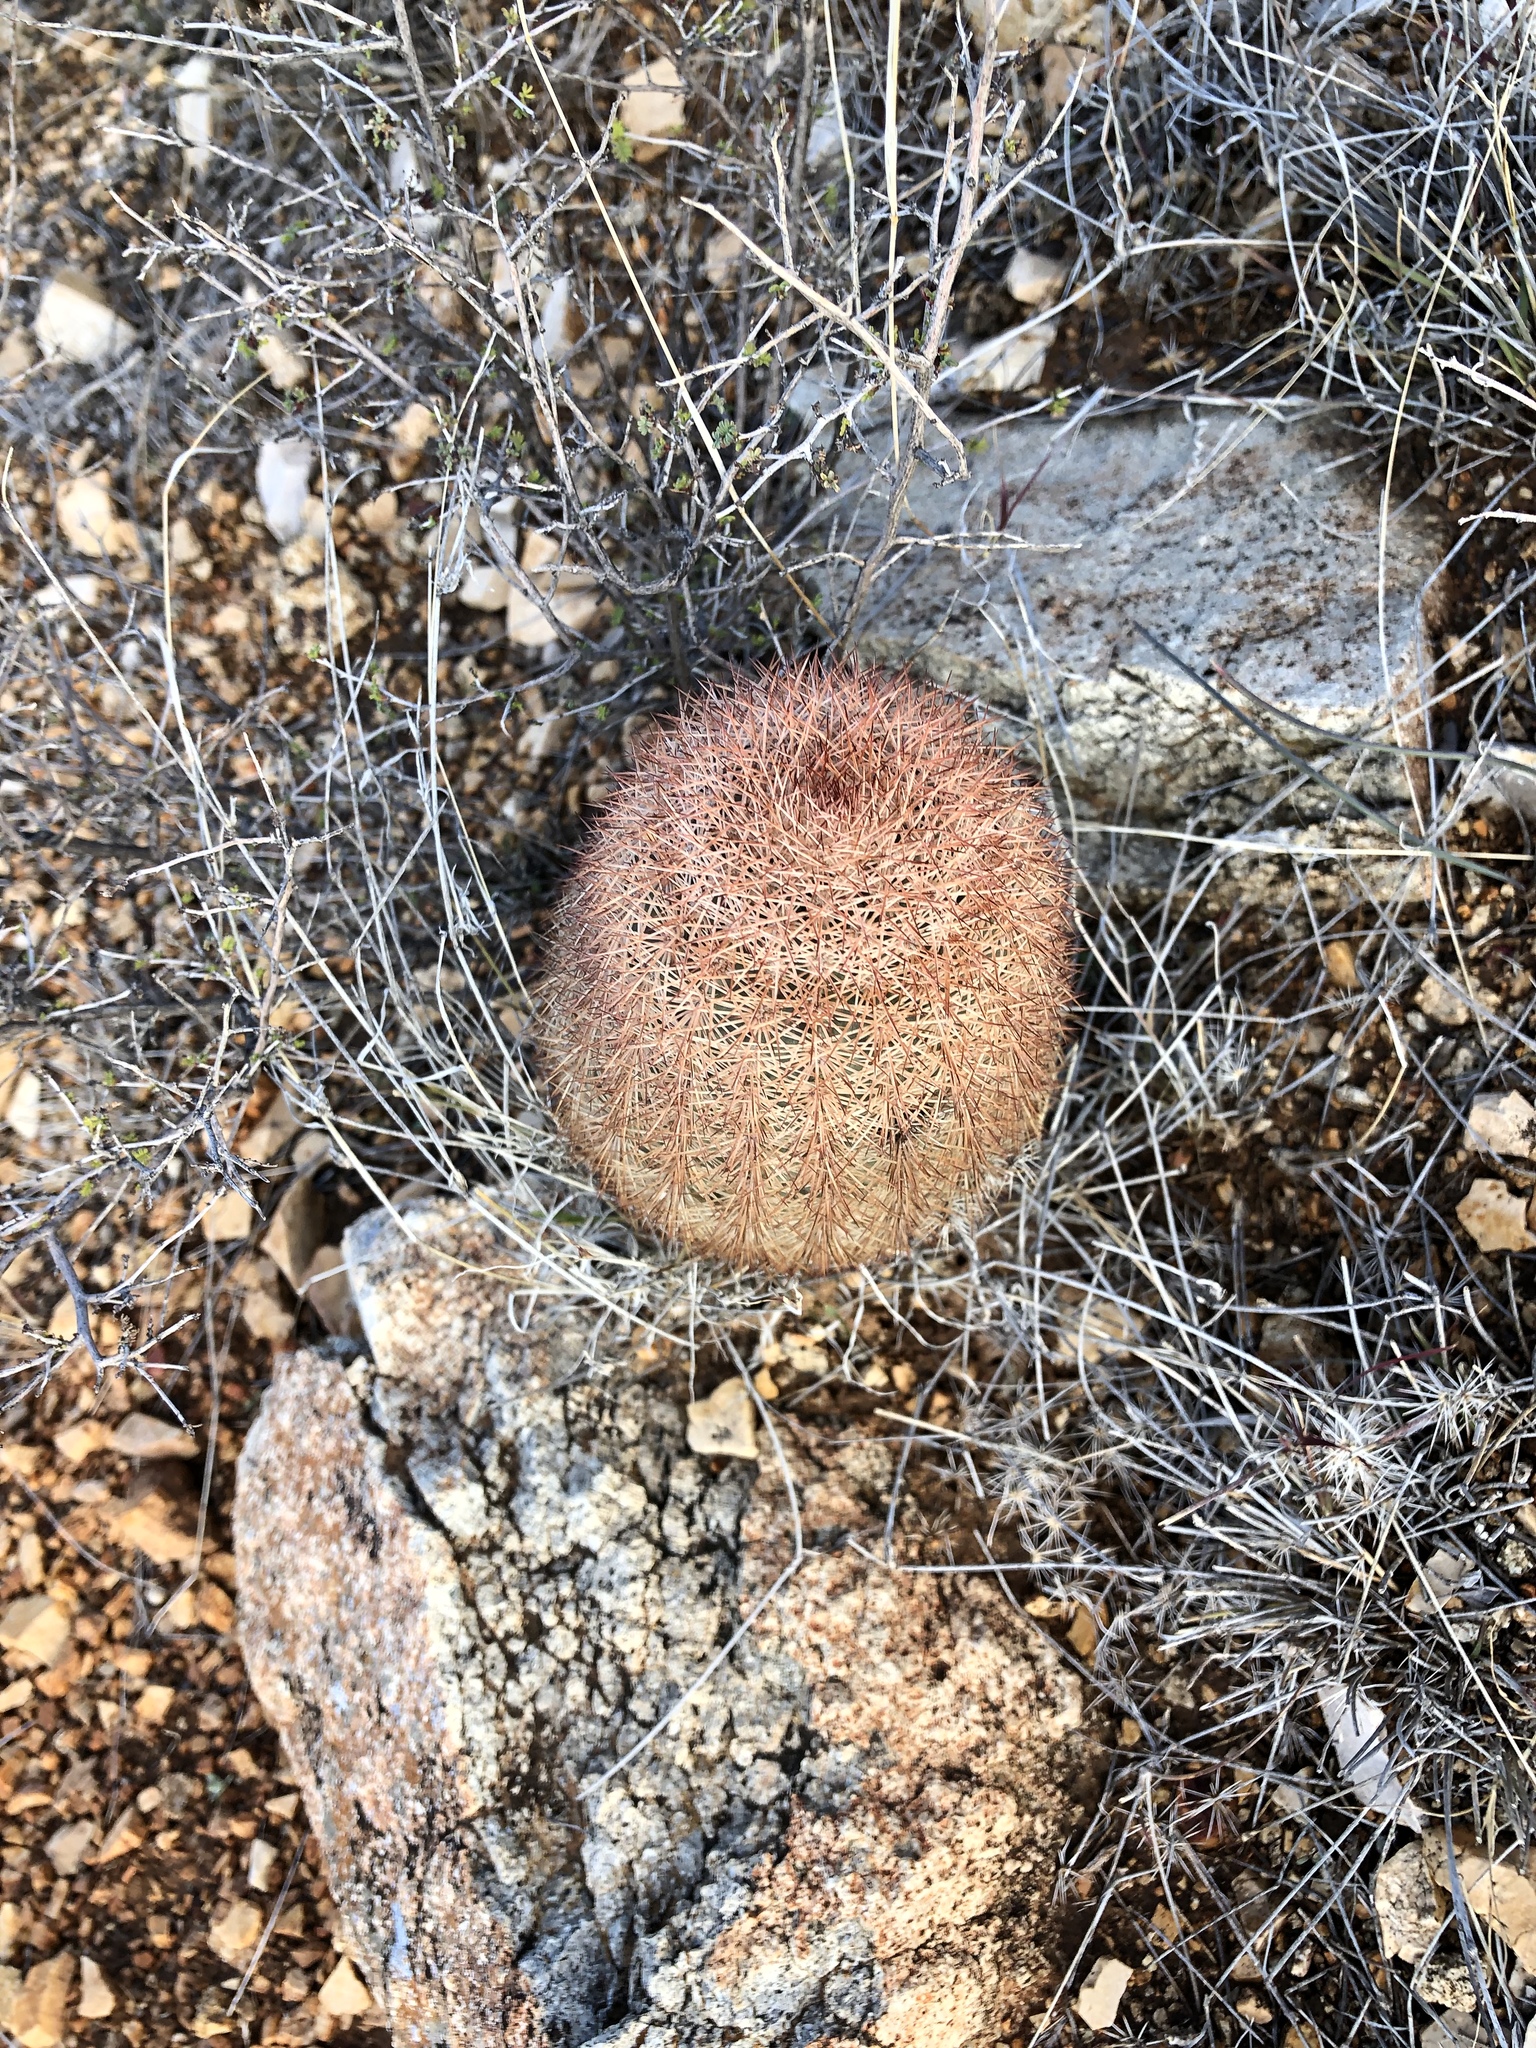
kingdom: Plantae
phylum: Tracheophyta
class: Magnoliopsida
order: Caryophyllales
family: Cactaceae
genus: Echinocereus
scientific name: Echinocereus dasyacanthus
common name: Spiny hedgehog cactus
